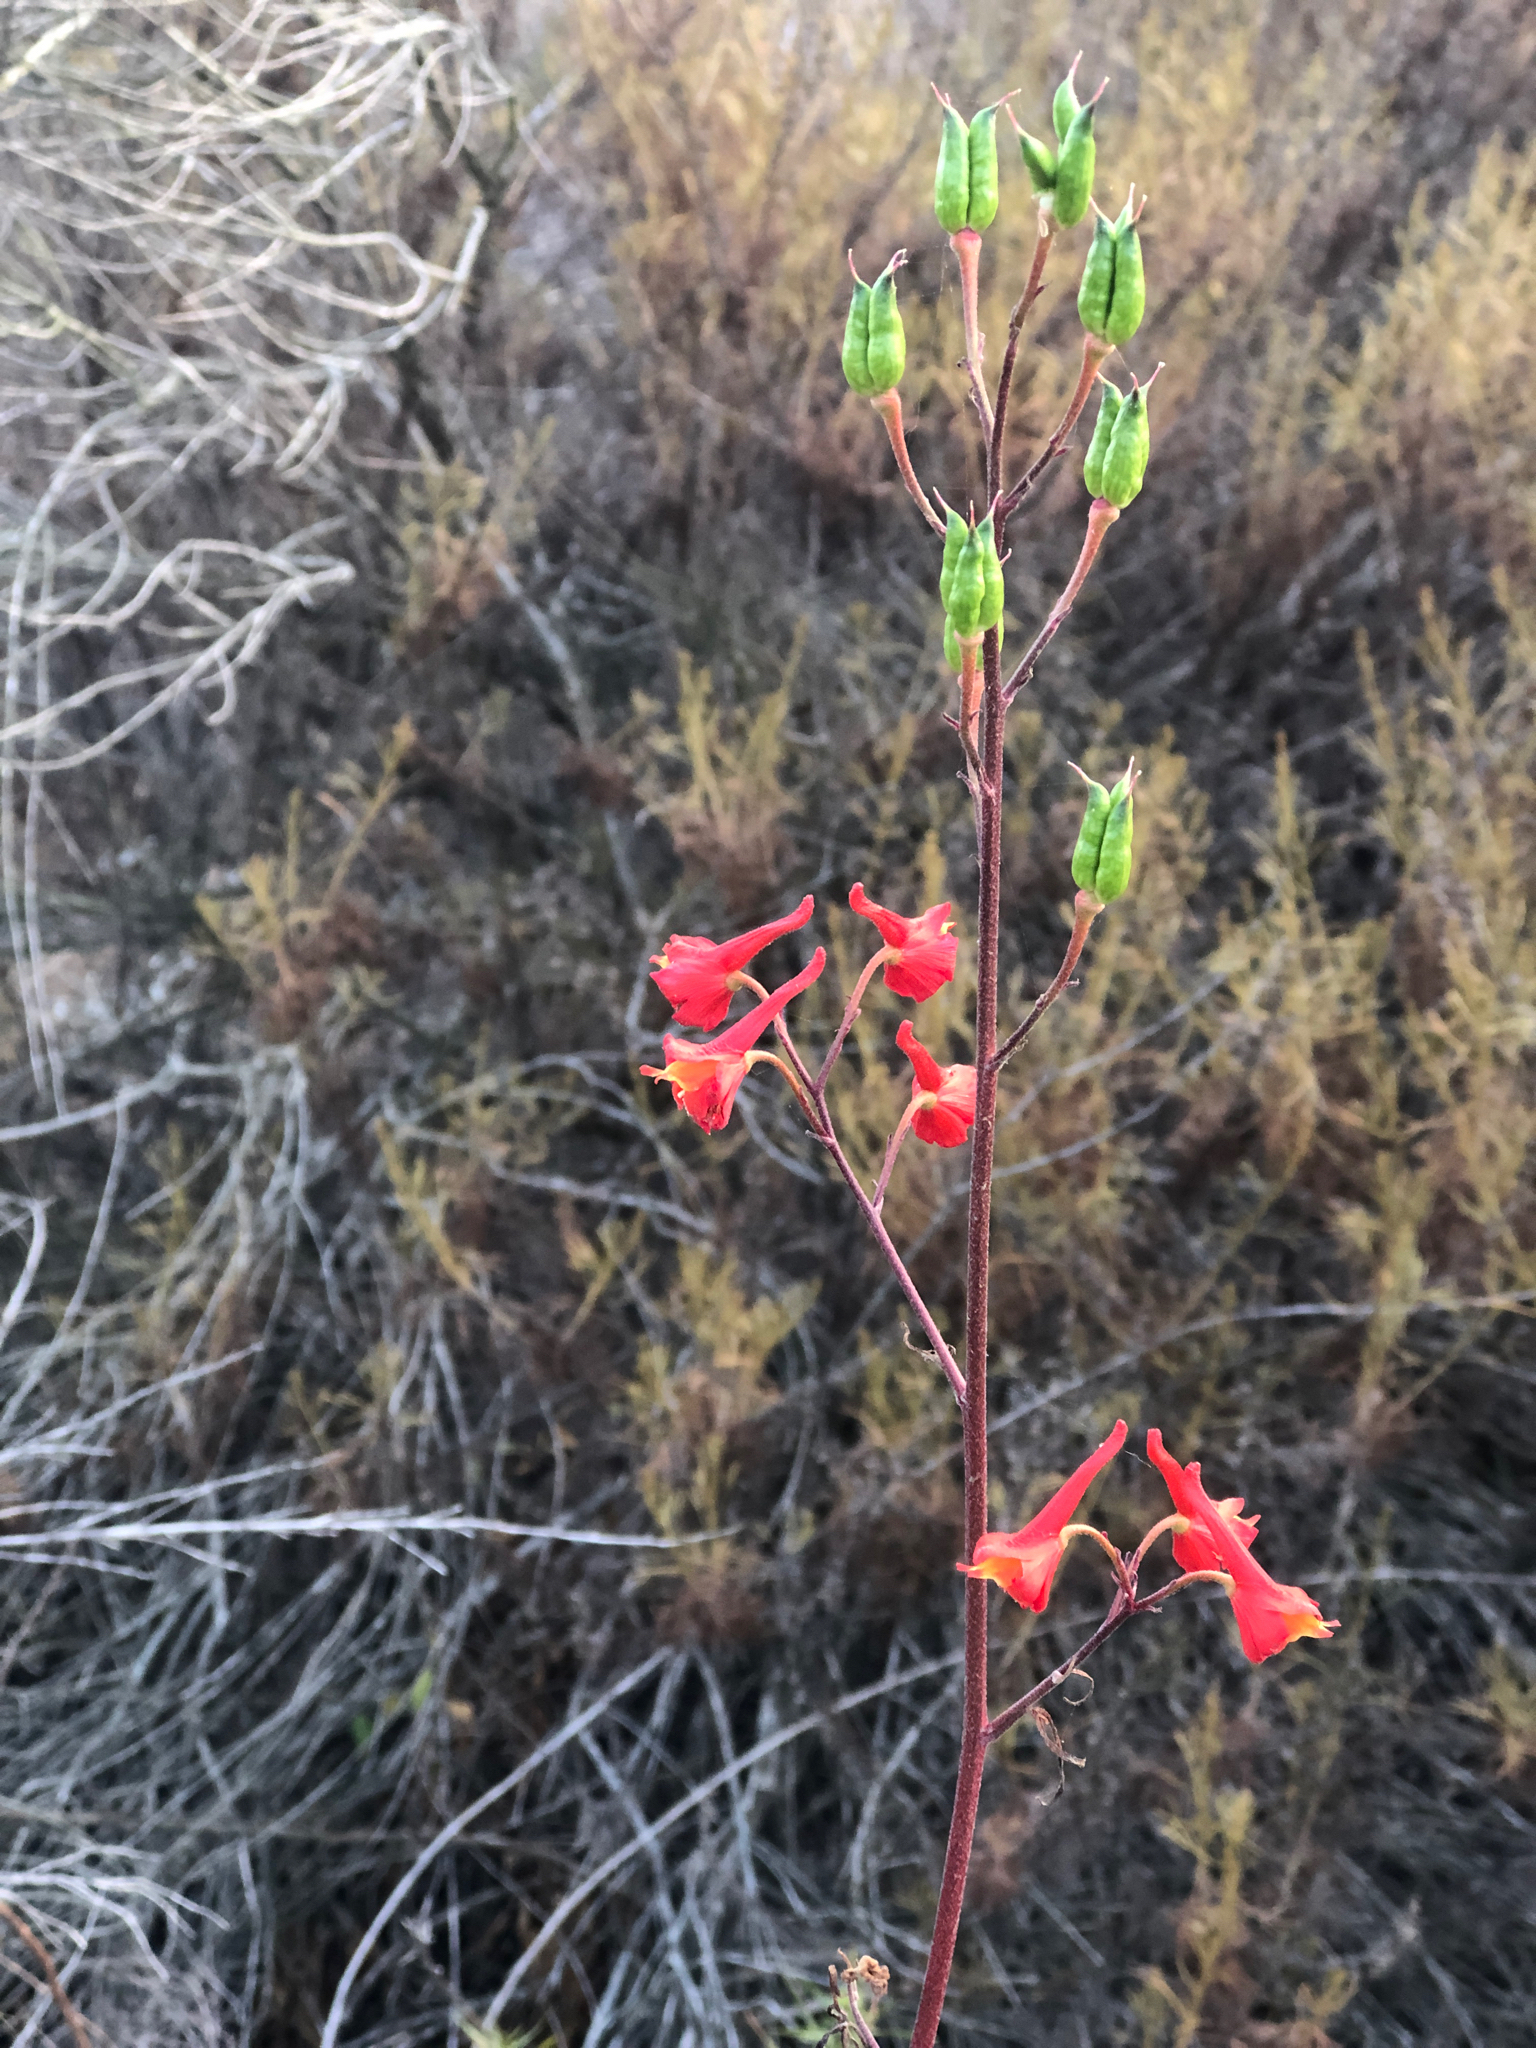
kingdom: Plantae
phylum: Tracheophyta
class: Magnoliopsida
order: Ranunculales
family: Ranunculaceae
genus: Delphinium
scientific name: Delphinium cardinale
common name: Scarlet larkspur
